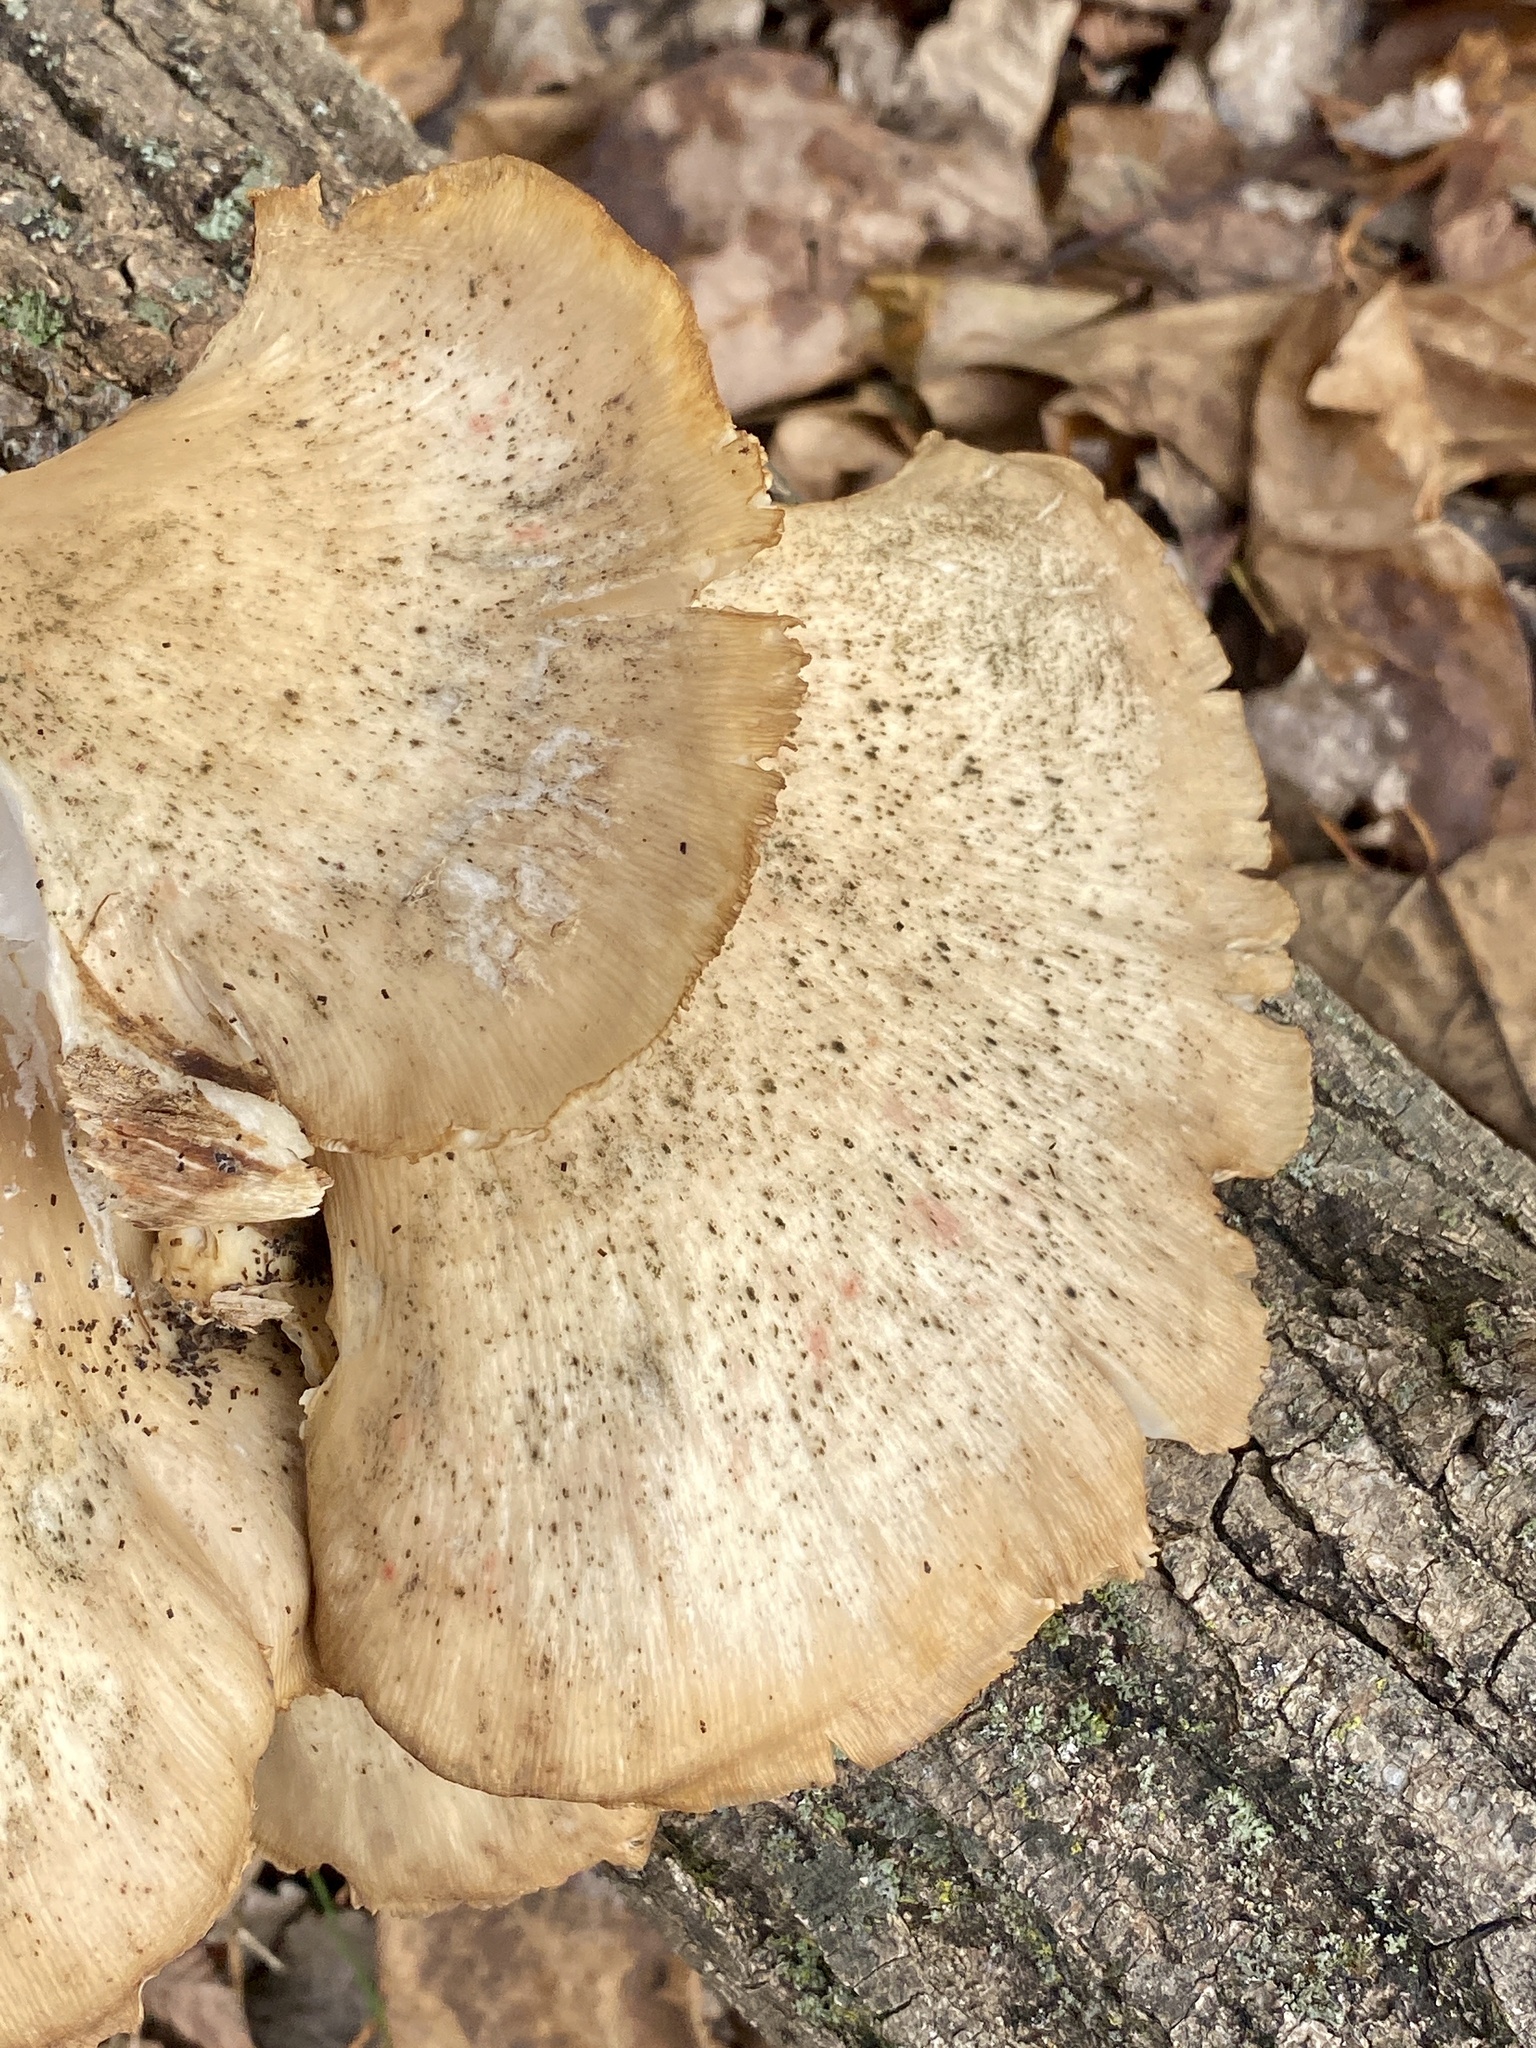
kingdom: Fungi
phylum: Basidiomycota
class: Agaricomycetes
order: Agaricales
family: Pleurotaceae
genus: Pleurotus
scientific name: Pleurotus populinus
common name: Aspen oyster mushroom
